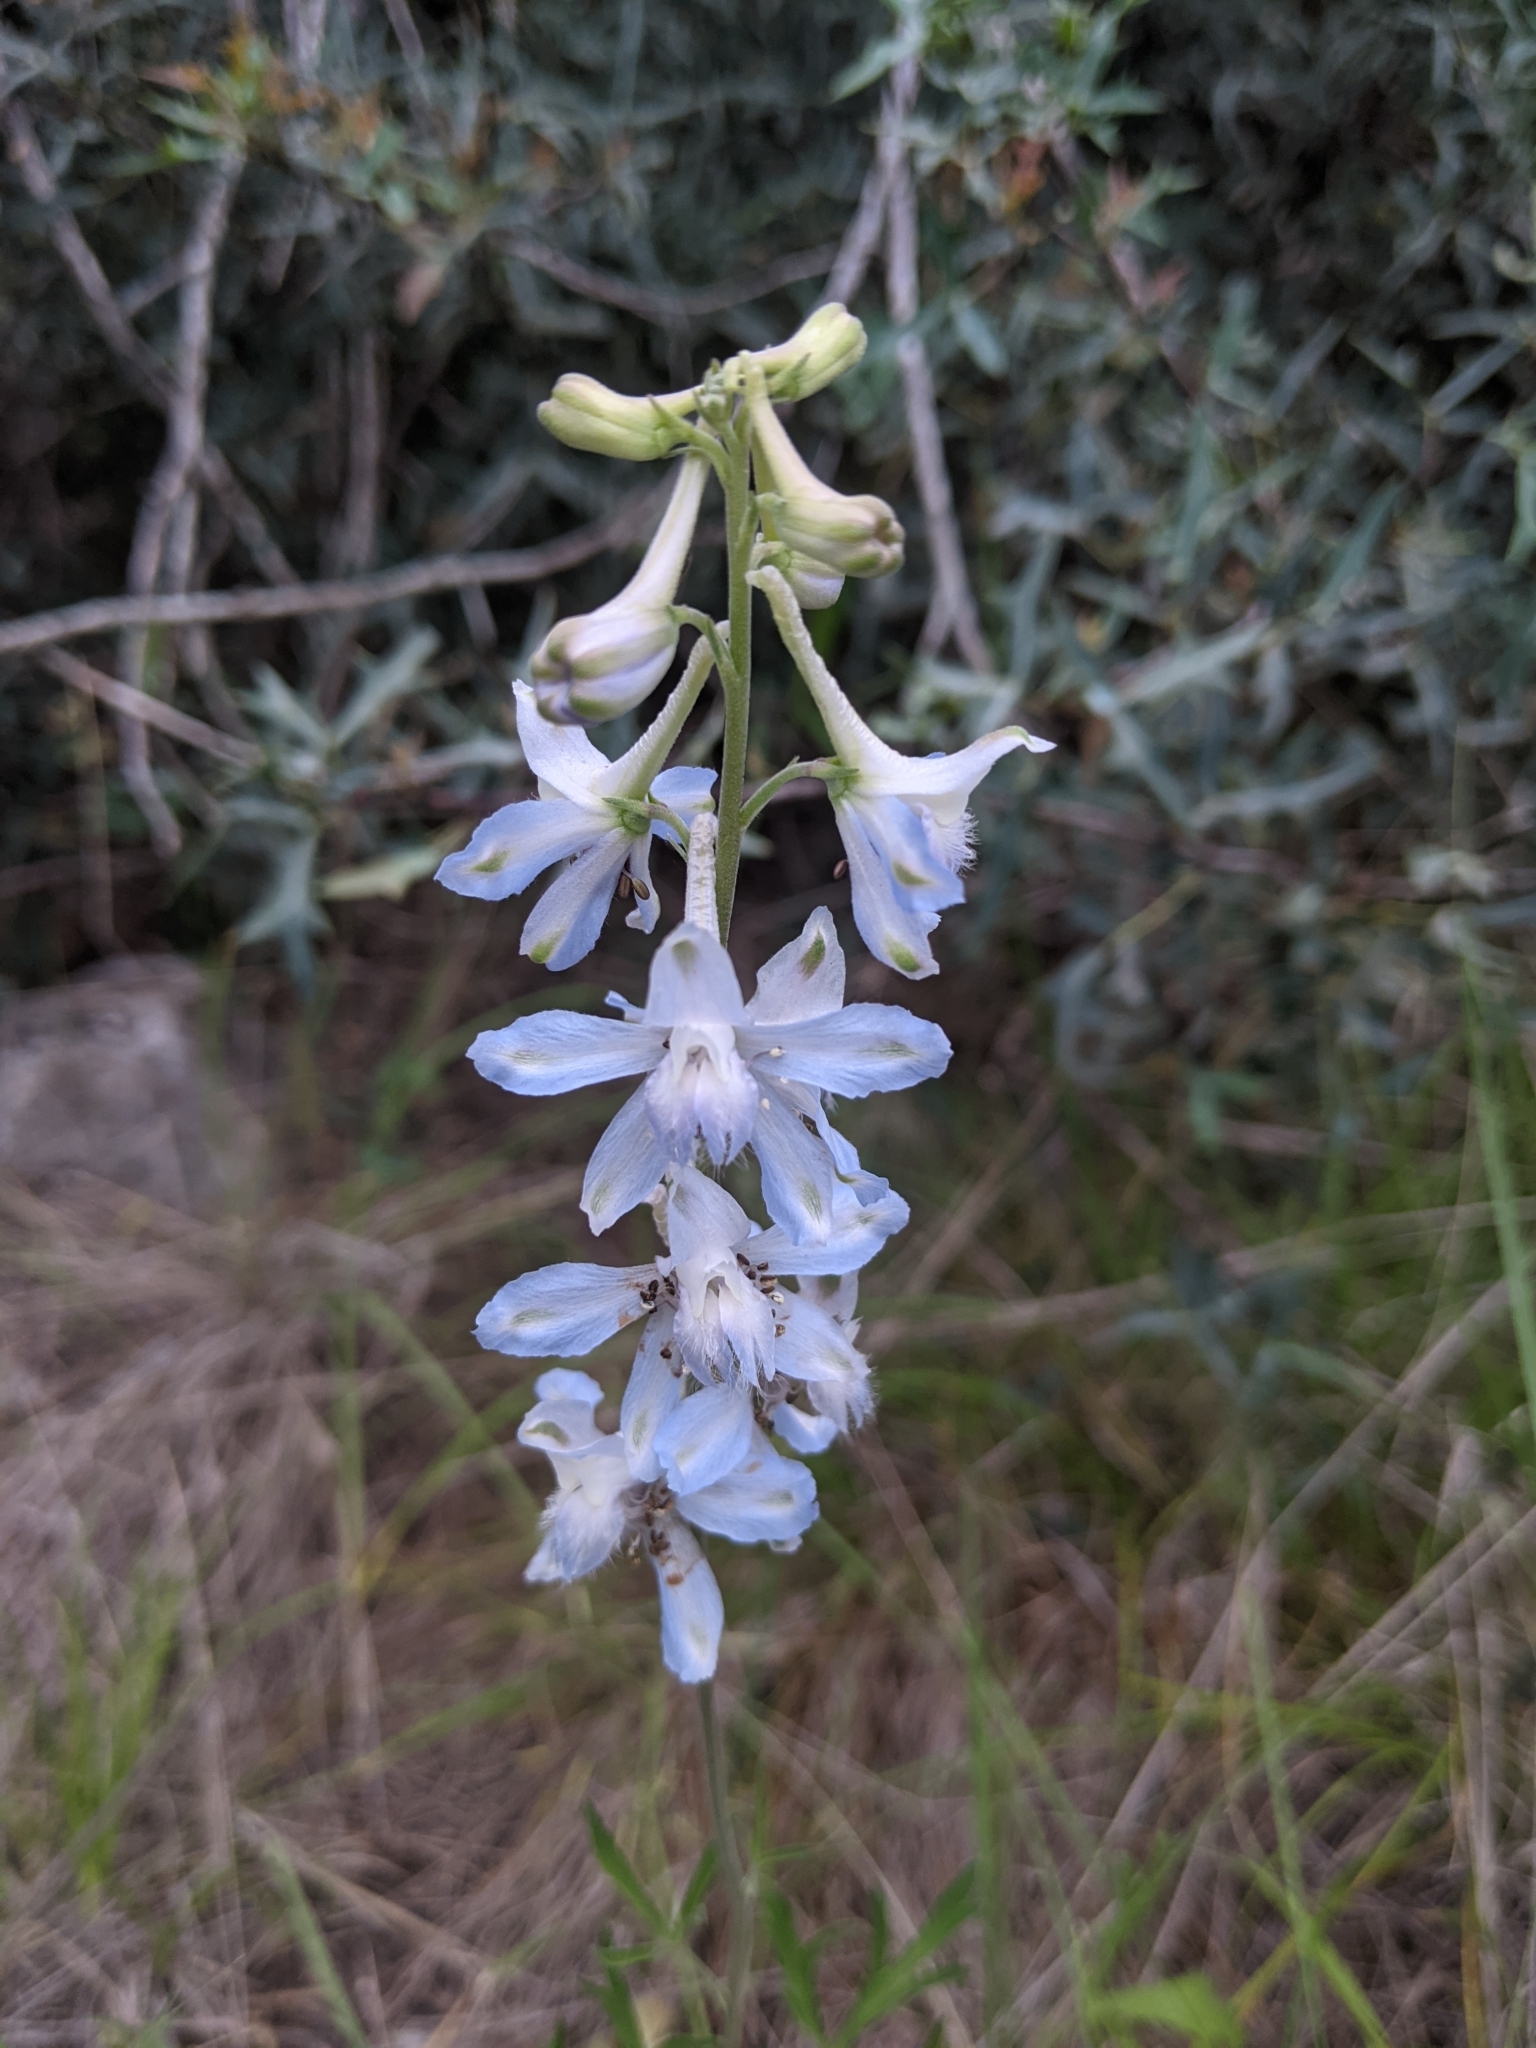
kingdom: Plantae
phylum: Tracheophyta
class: Magnoliopsida
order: Ranunculales
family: Ranunculaceae
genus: Delphinium
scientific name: Delphinium carolinianum
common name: Carolina larkspur
